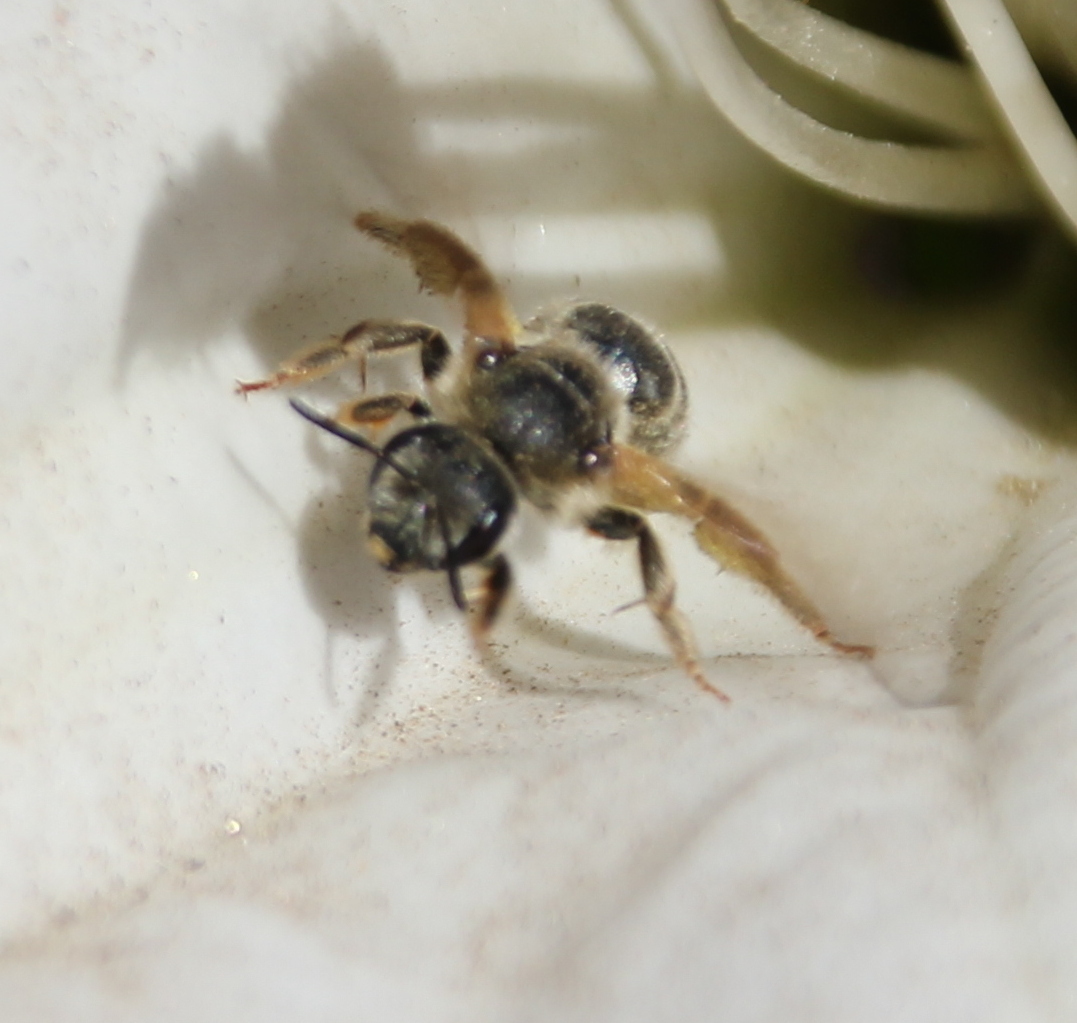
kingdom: Animalia
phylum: Arthropoda
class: Insecta
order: Hymenoptera
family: Halictidae
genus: Halictus
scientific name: Halictus
